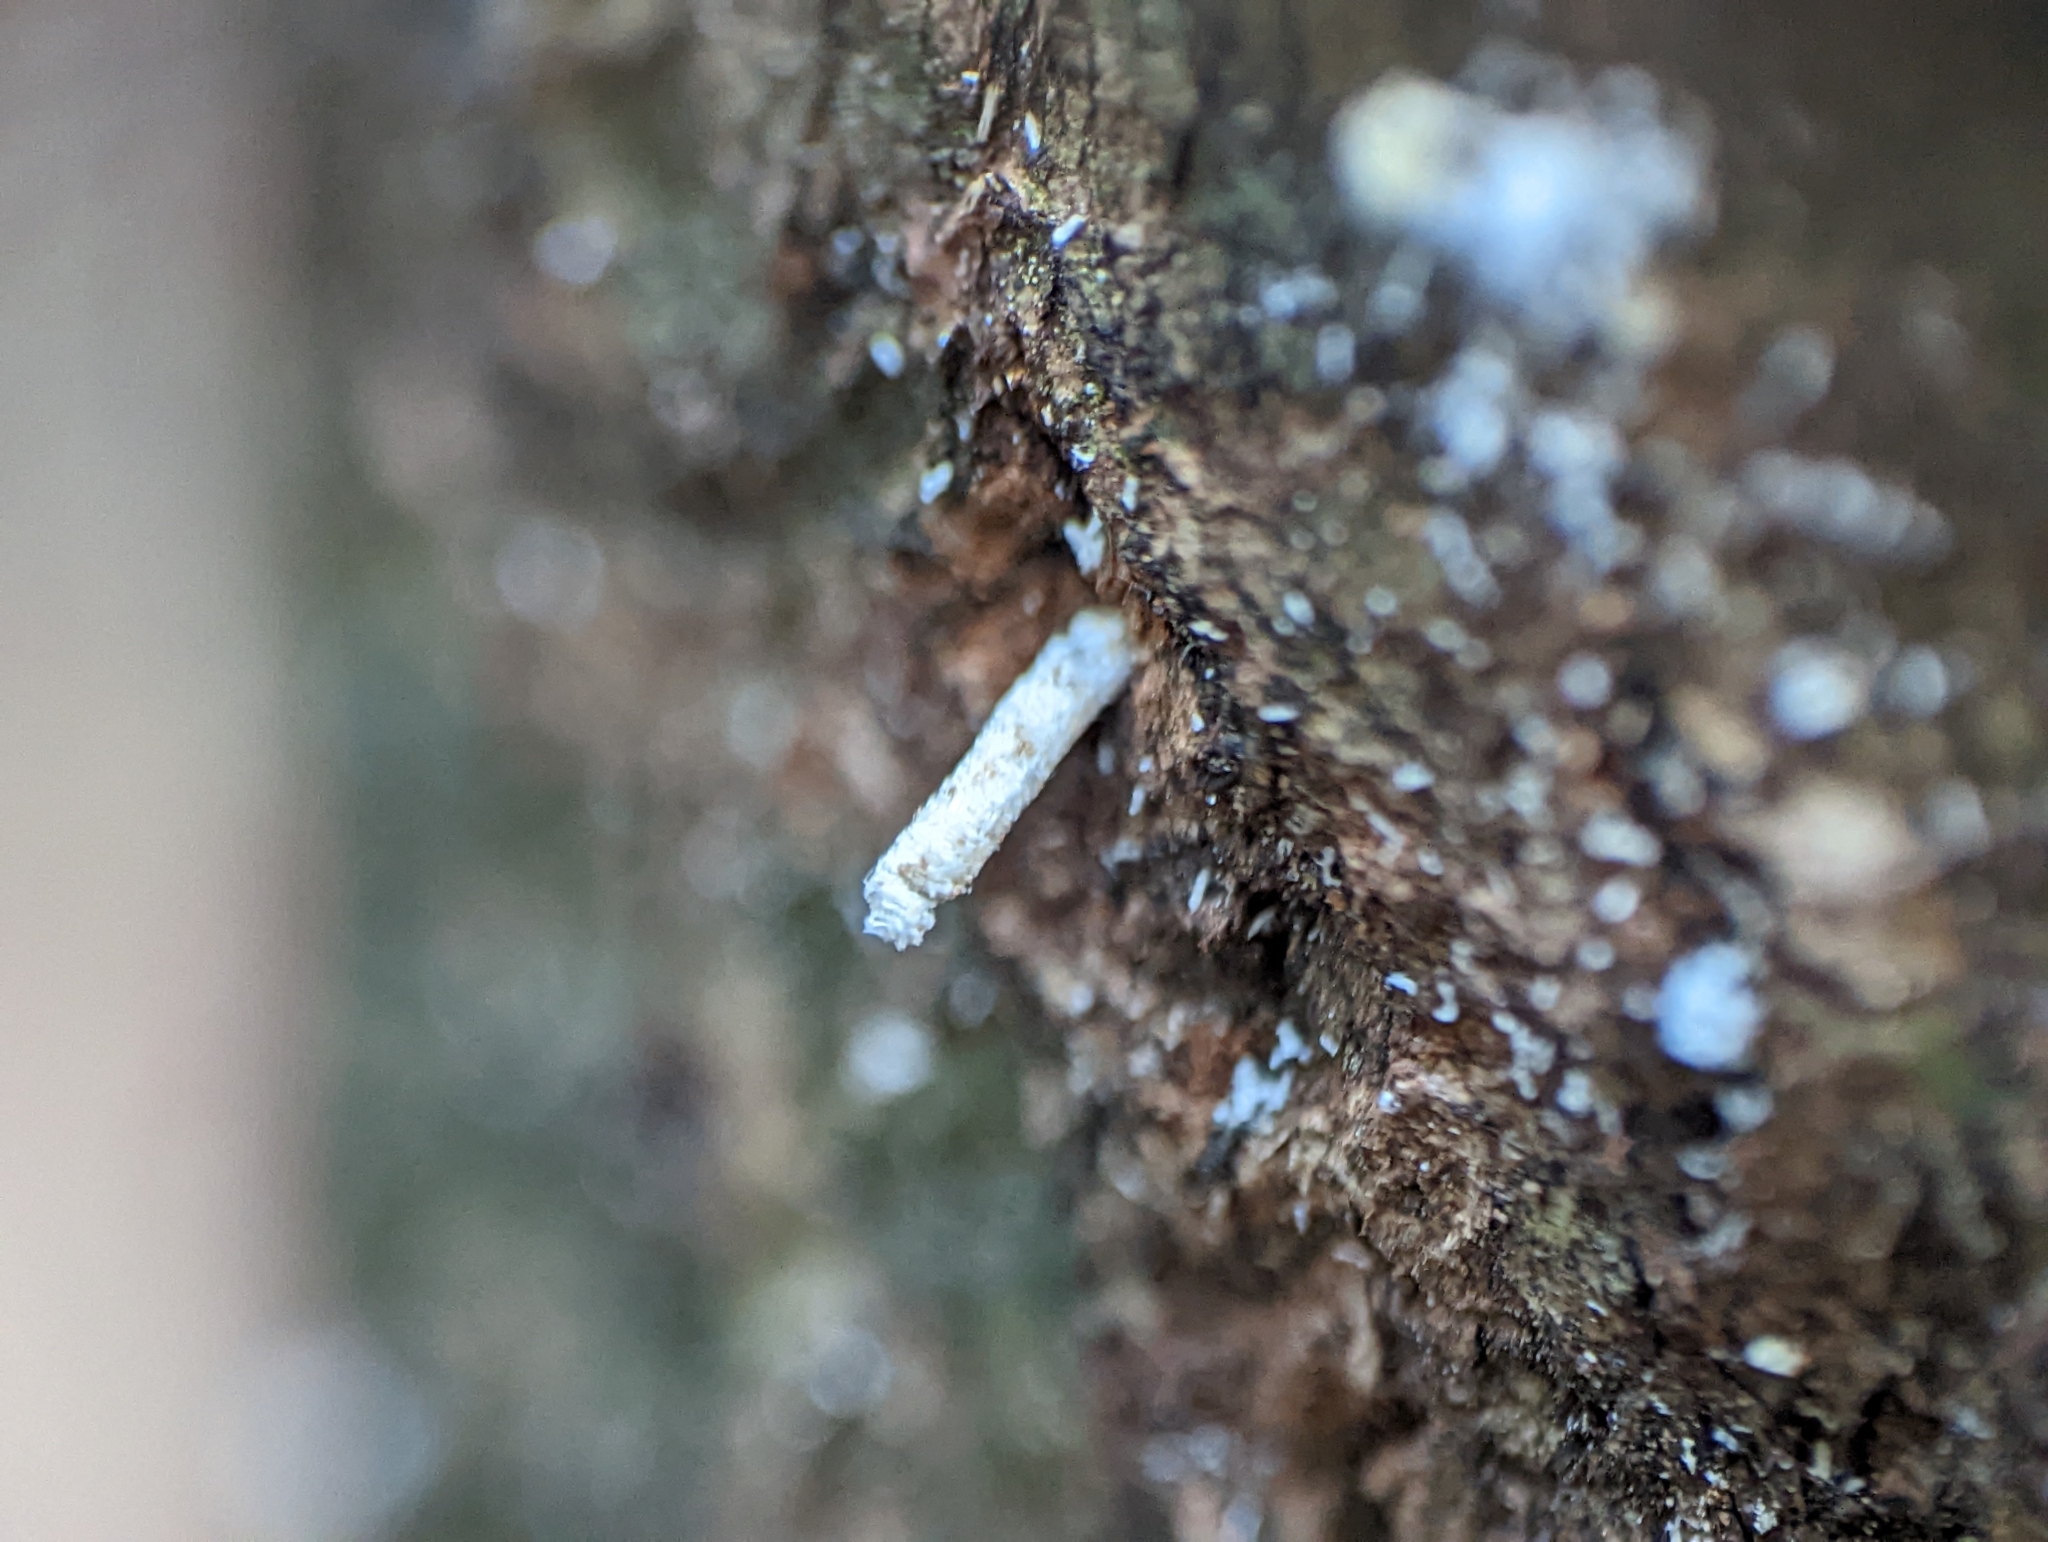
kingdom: Animalia
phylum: Arthropoda
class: Insecta
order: Coleoptera
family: Curculionidae
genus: Xyleborus
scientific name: Xyleborus glabratus
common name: Redbay ambrosia beetle
